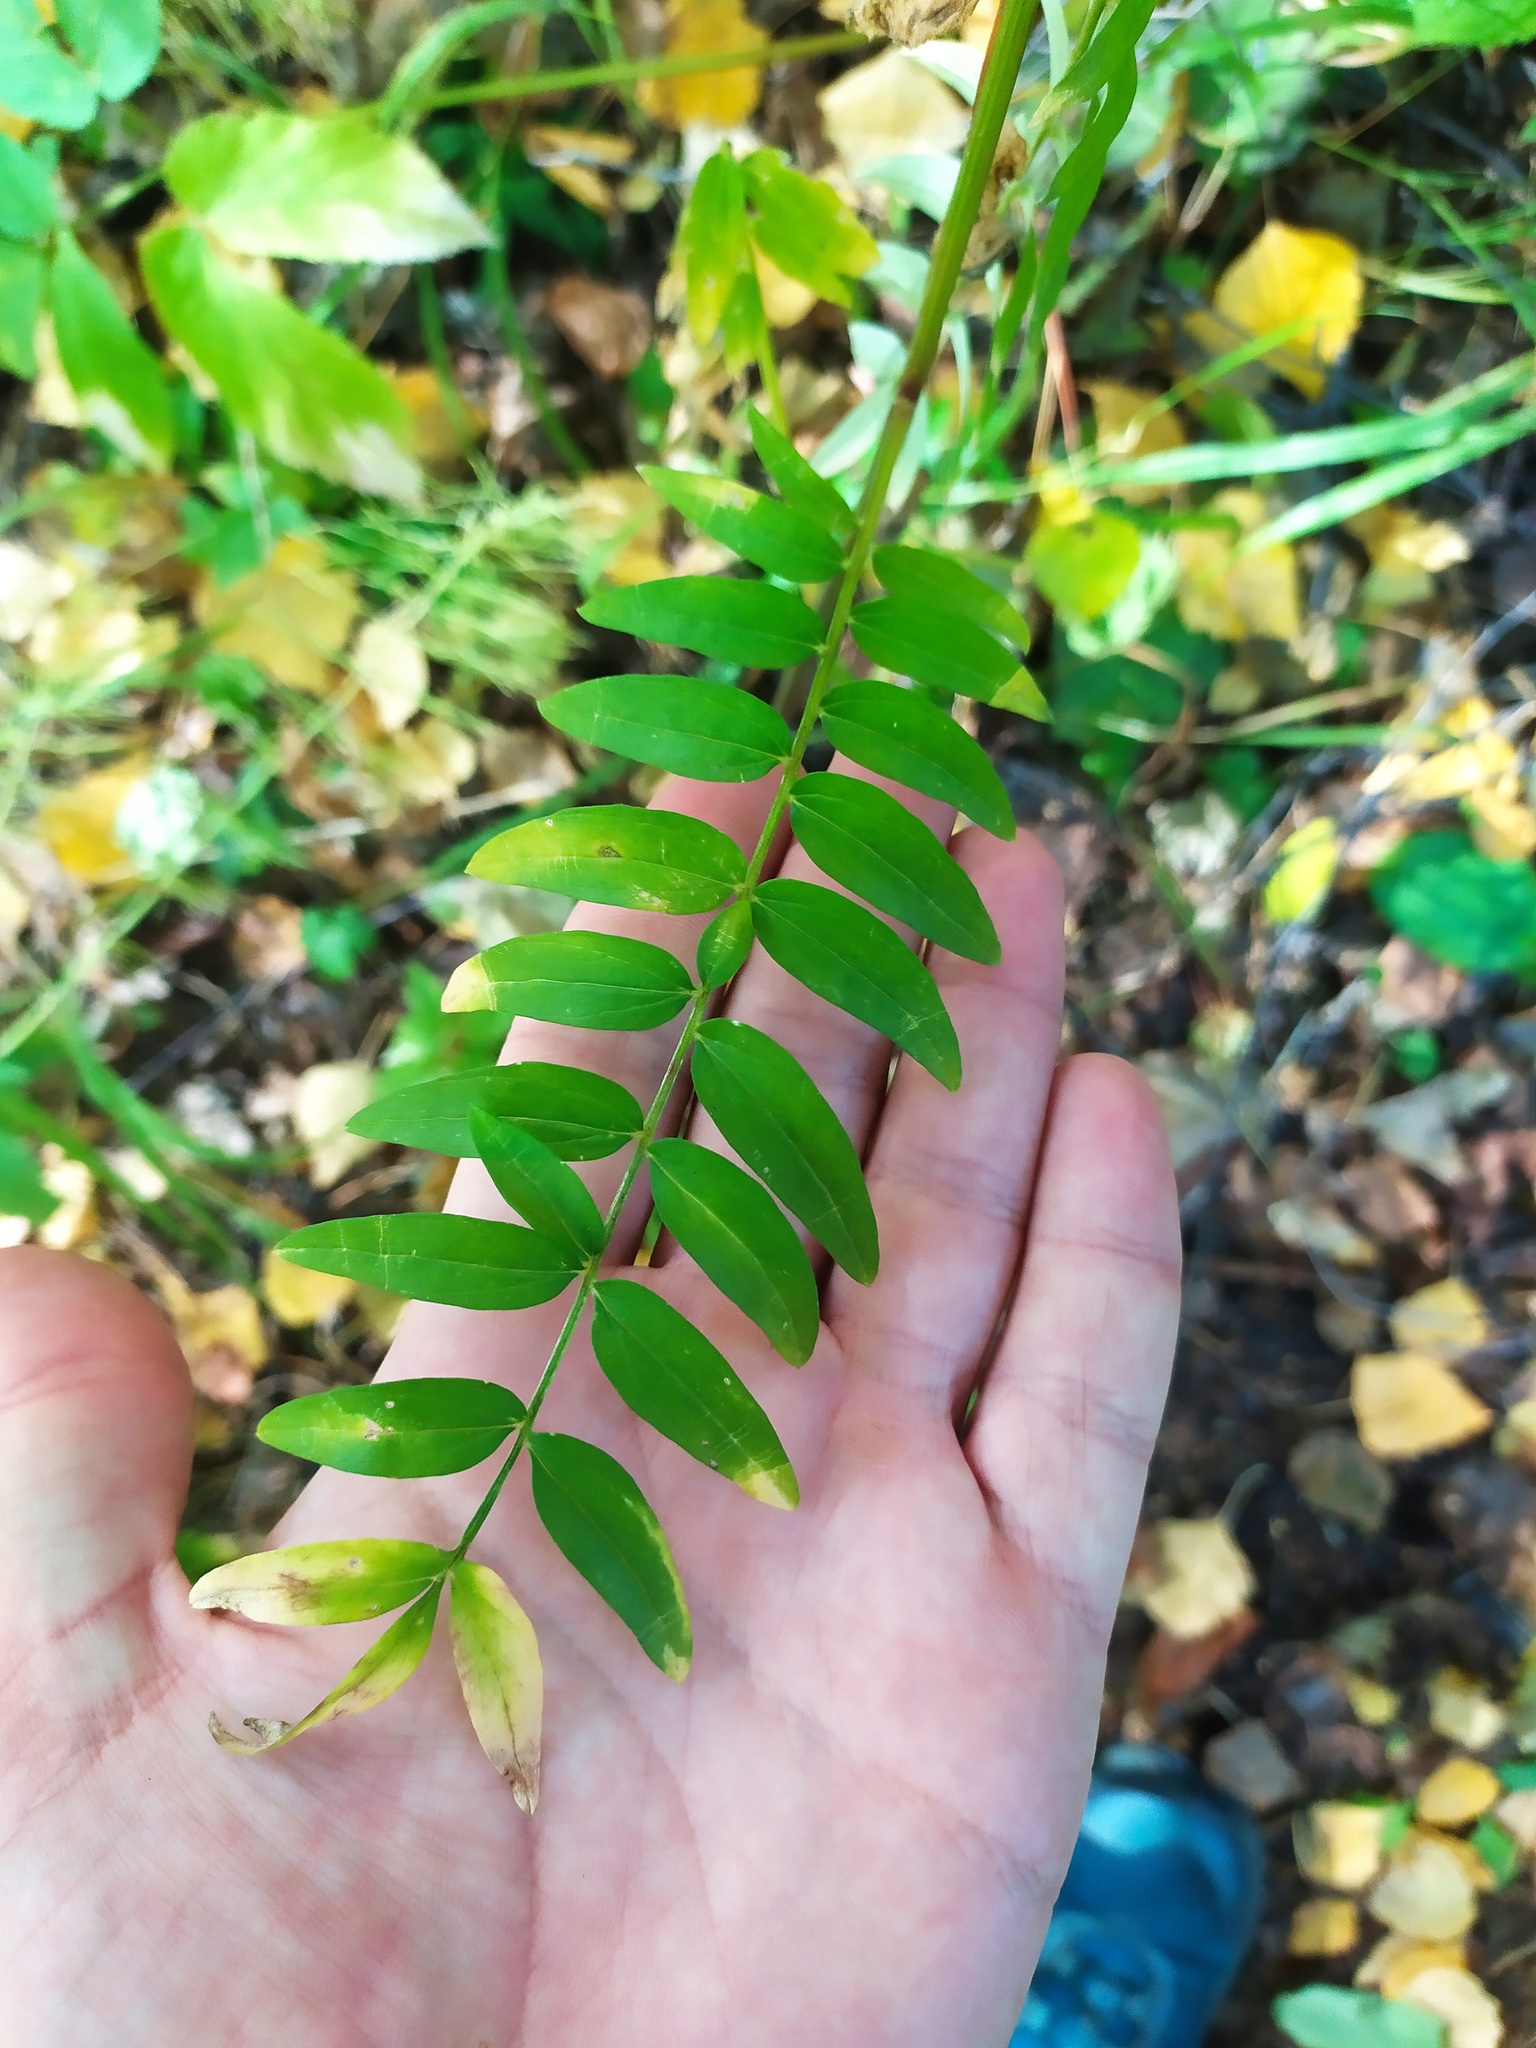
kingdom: Plantae
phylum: Tracheophyta
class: Magnoliopsida
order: Ericales
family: Polemoniaceae
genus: Polemonium
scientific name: Polemonium caeruleum
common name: Jacob's-ladder
